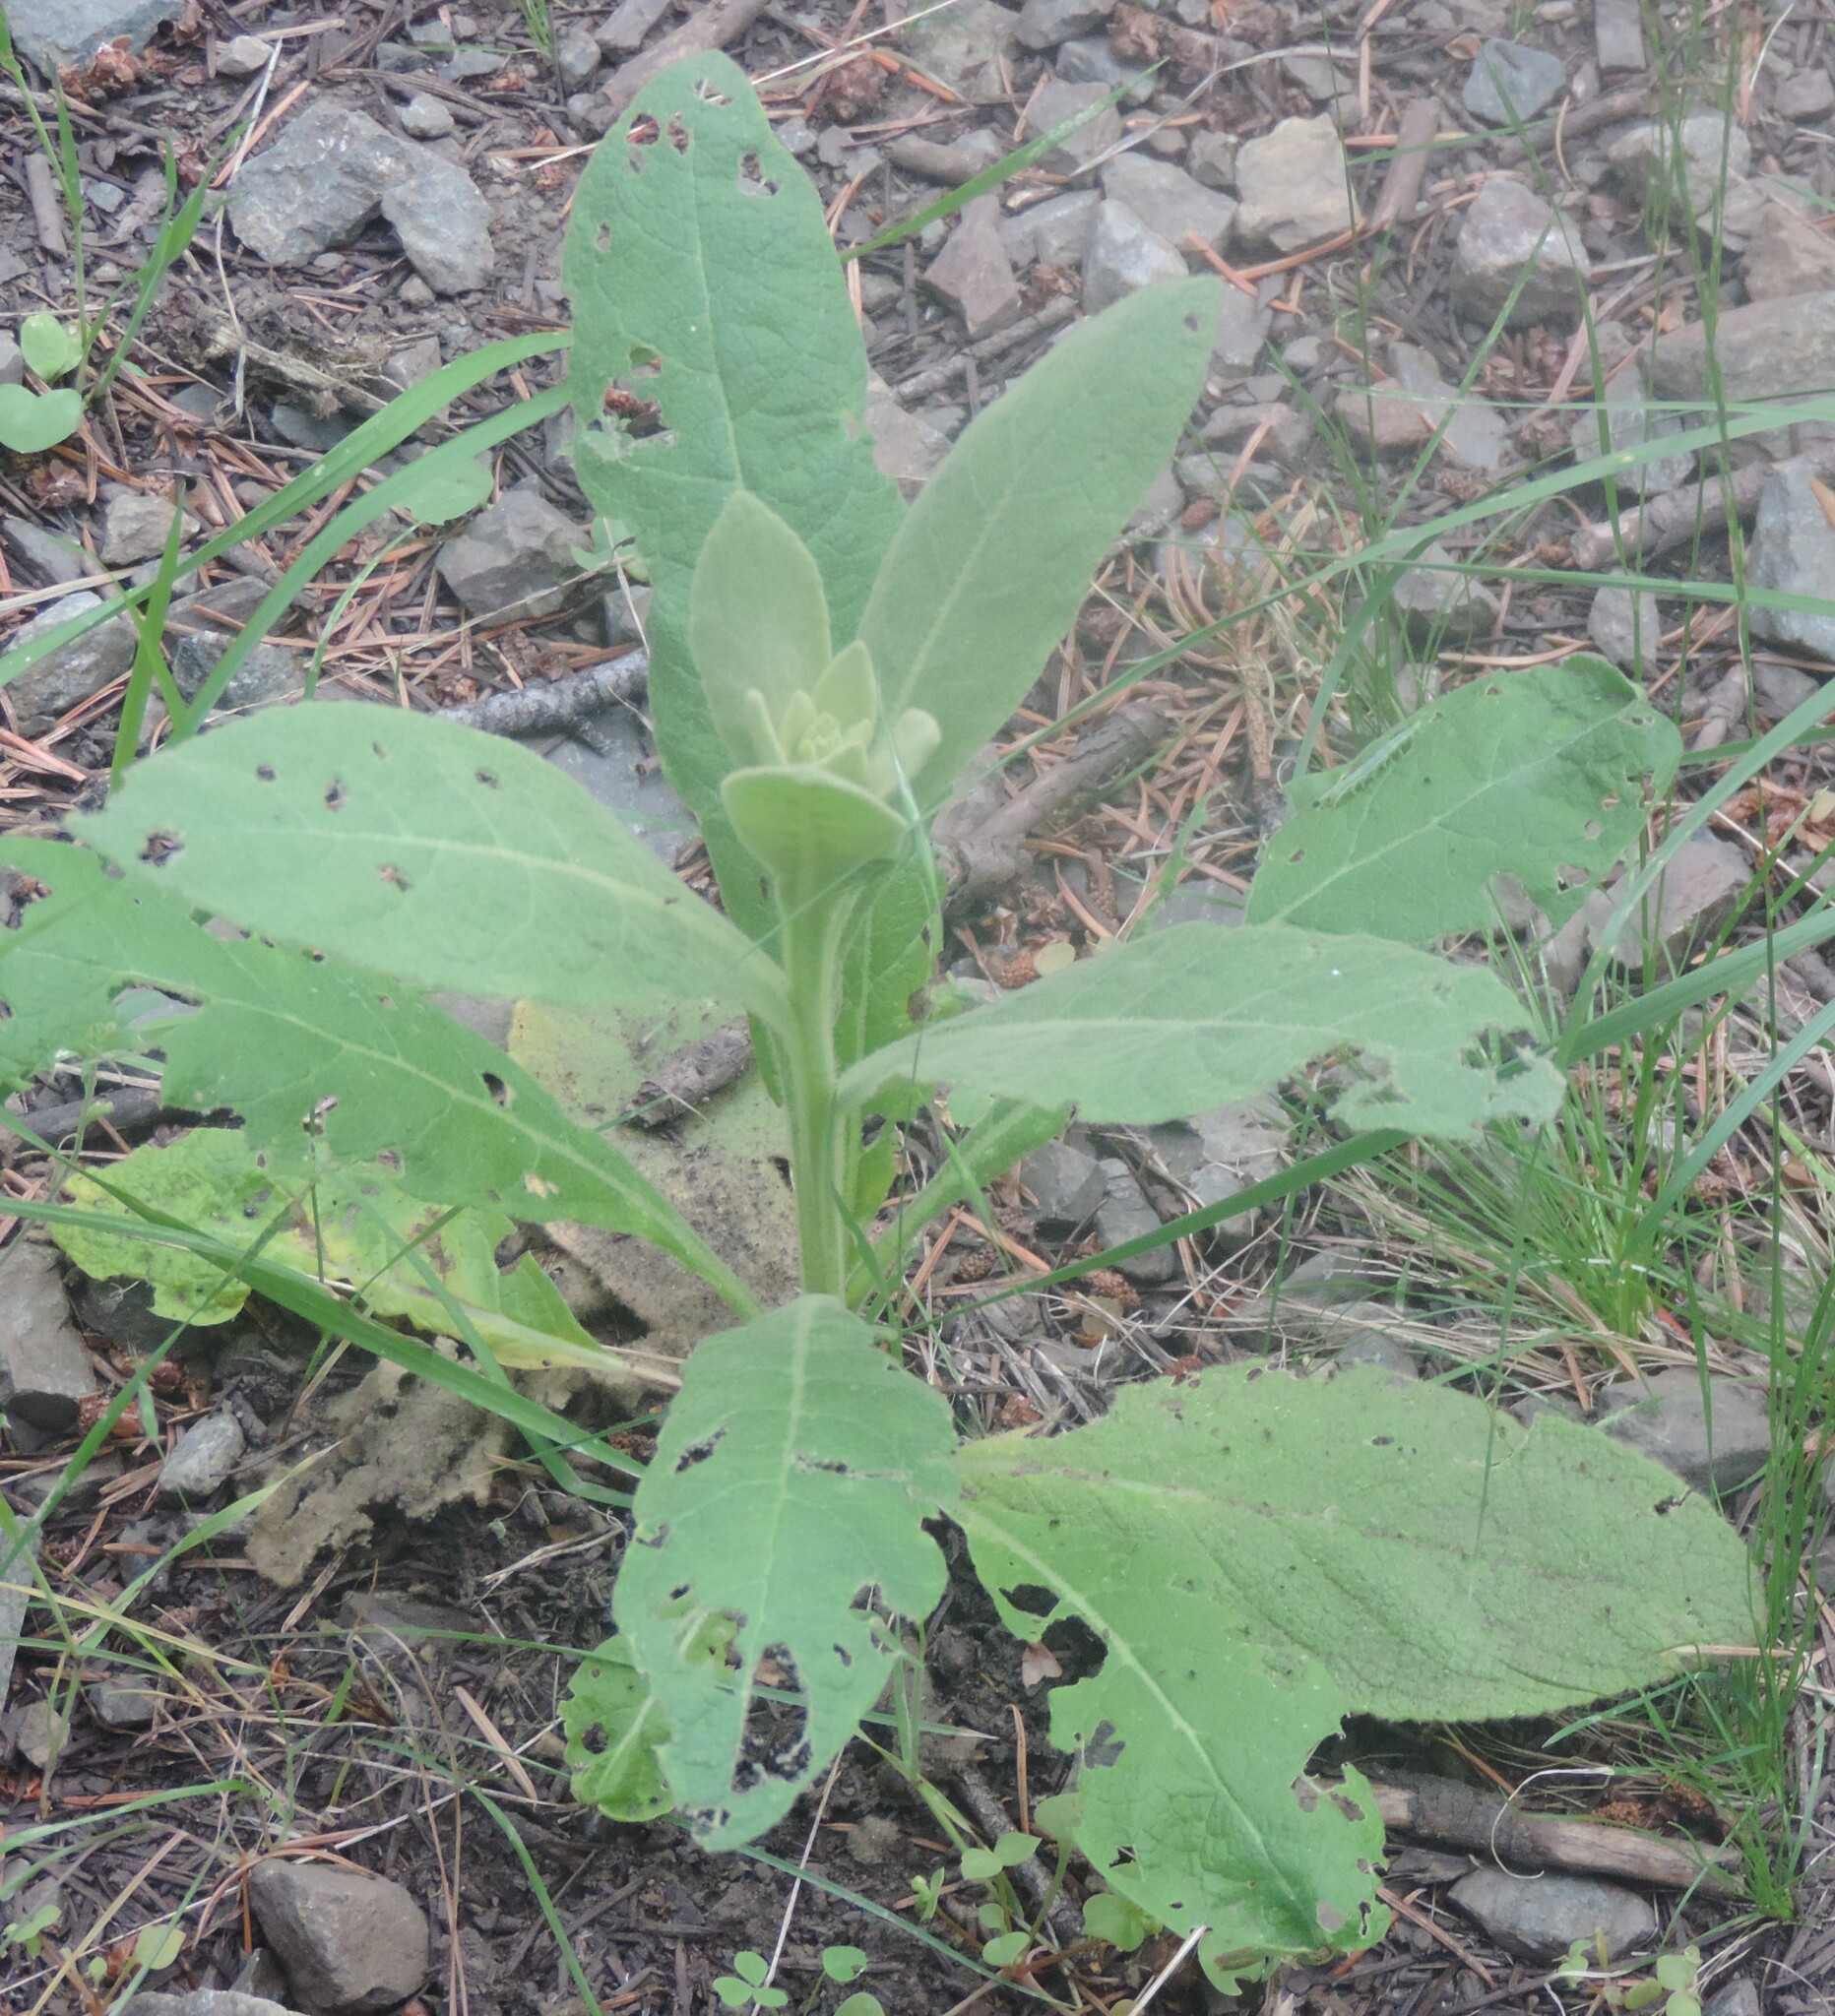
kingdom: Plantae
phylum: Tracheophyta
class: Magnoliopsida
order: Lamiales
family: Scrophulariaceae
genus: Verbascum
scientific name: Verbascum thapsus
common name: Common mullein
